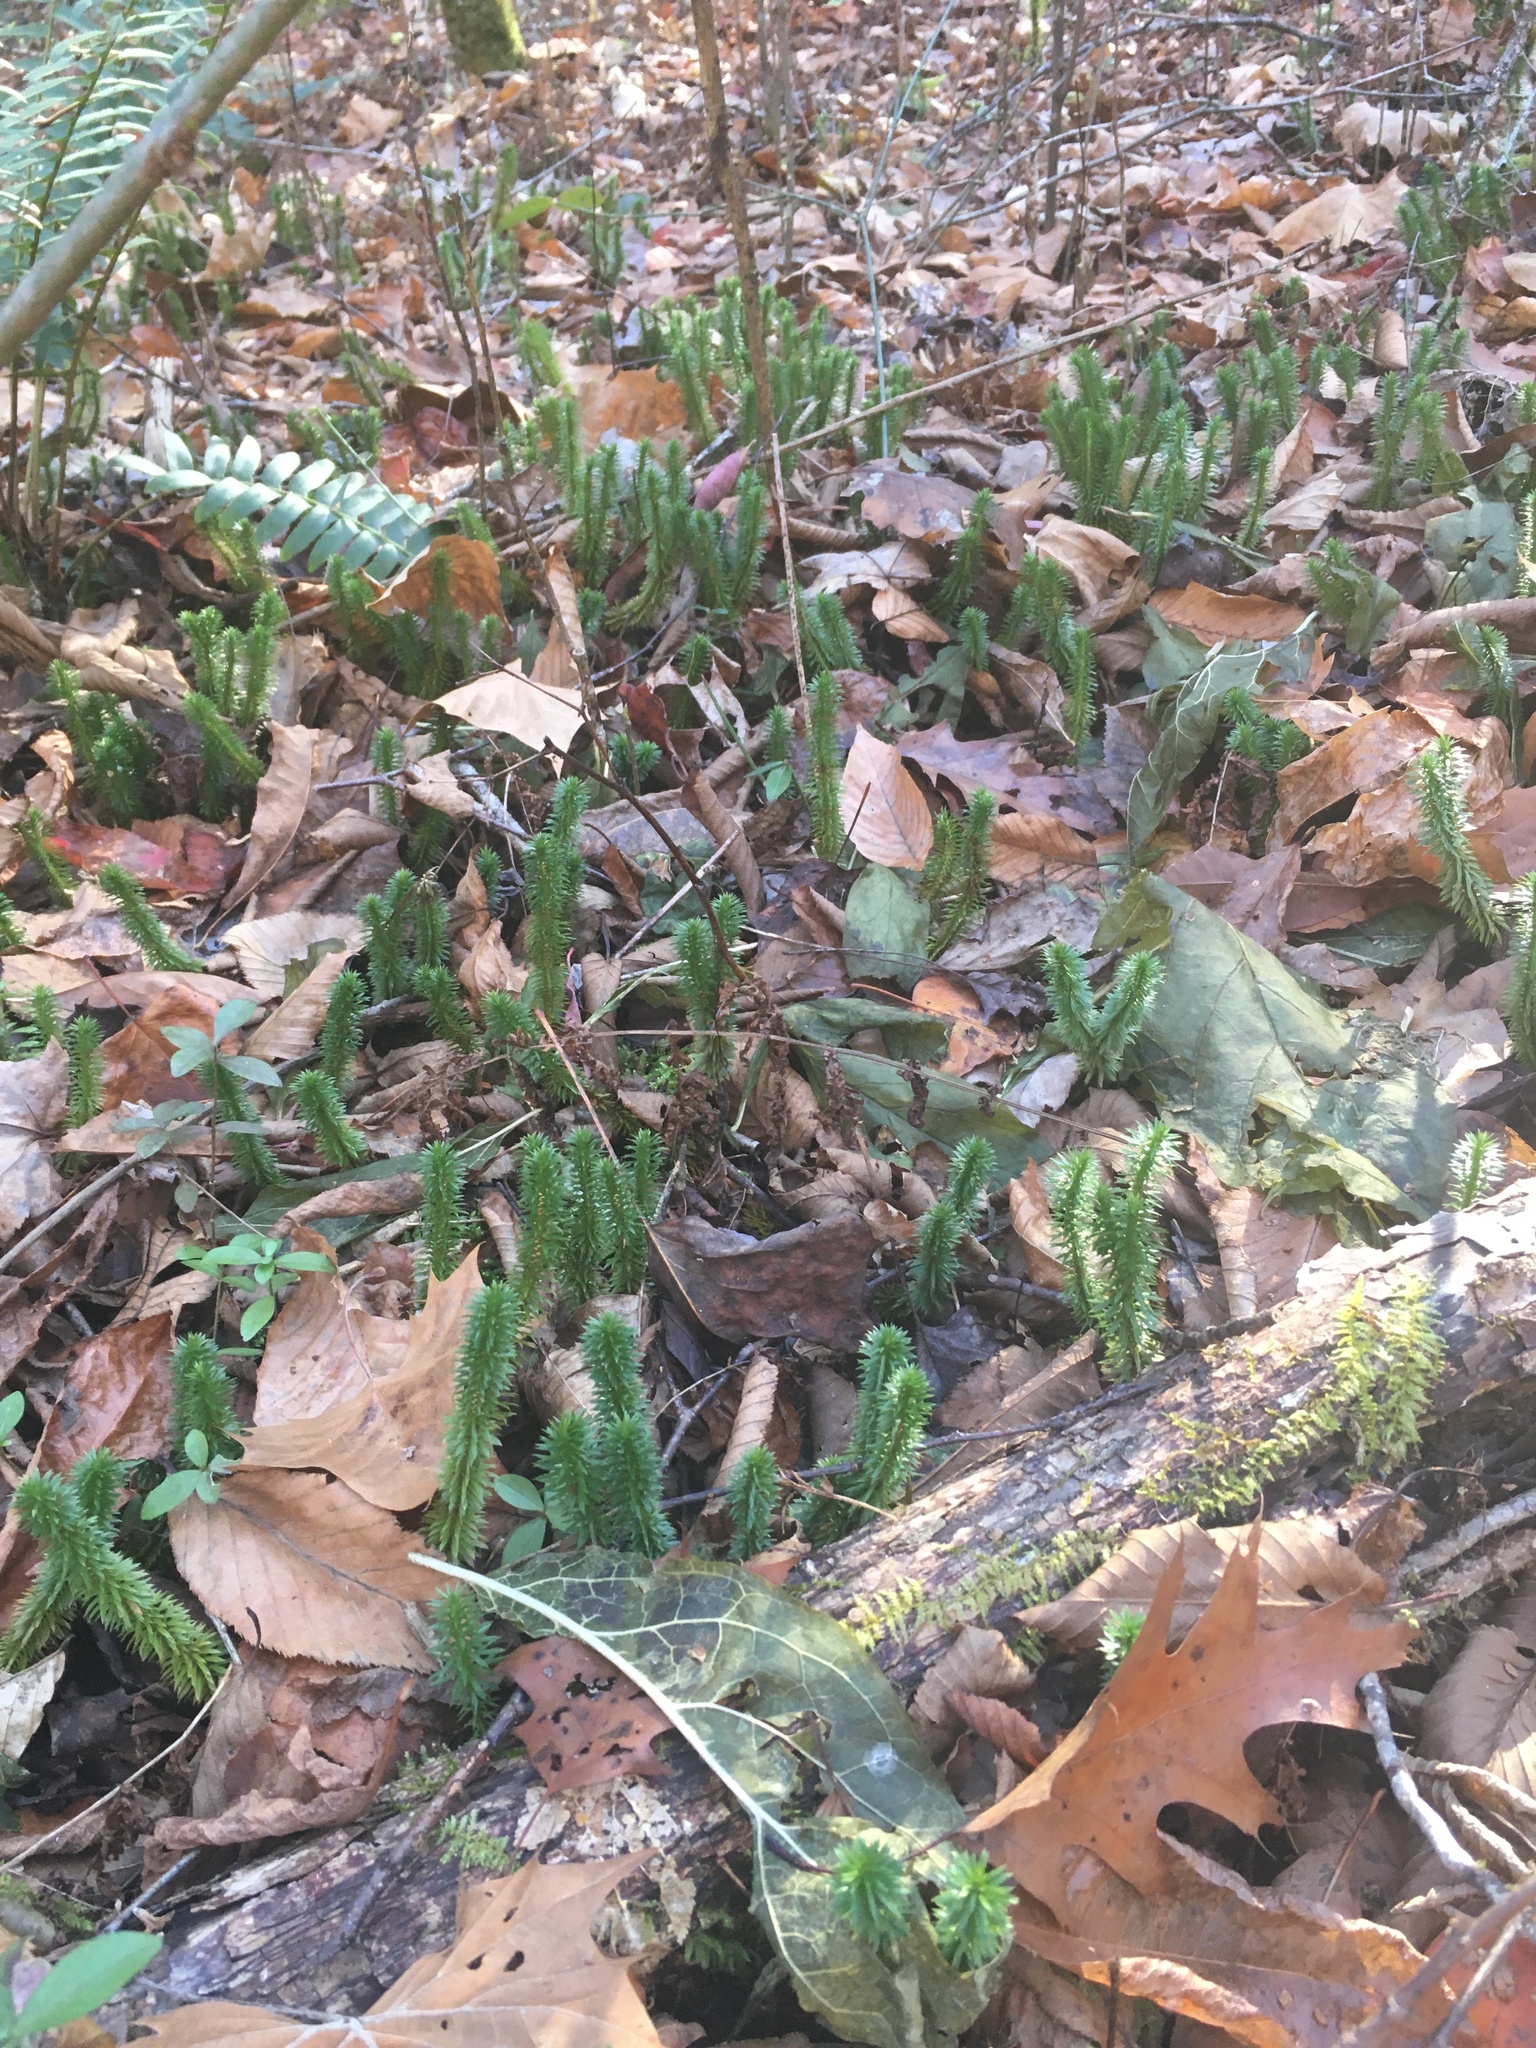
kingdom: Plantae
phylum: Tracheophyta
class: Lycopodiopsida
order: Lycopodiales
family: Lycopodiaceae
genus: Huperzia
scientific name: Huperzia lucidula
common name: Shining clubmoss
